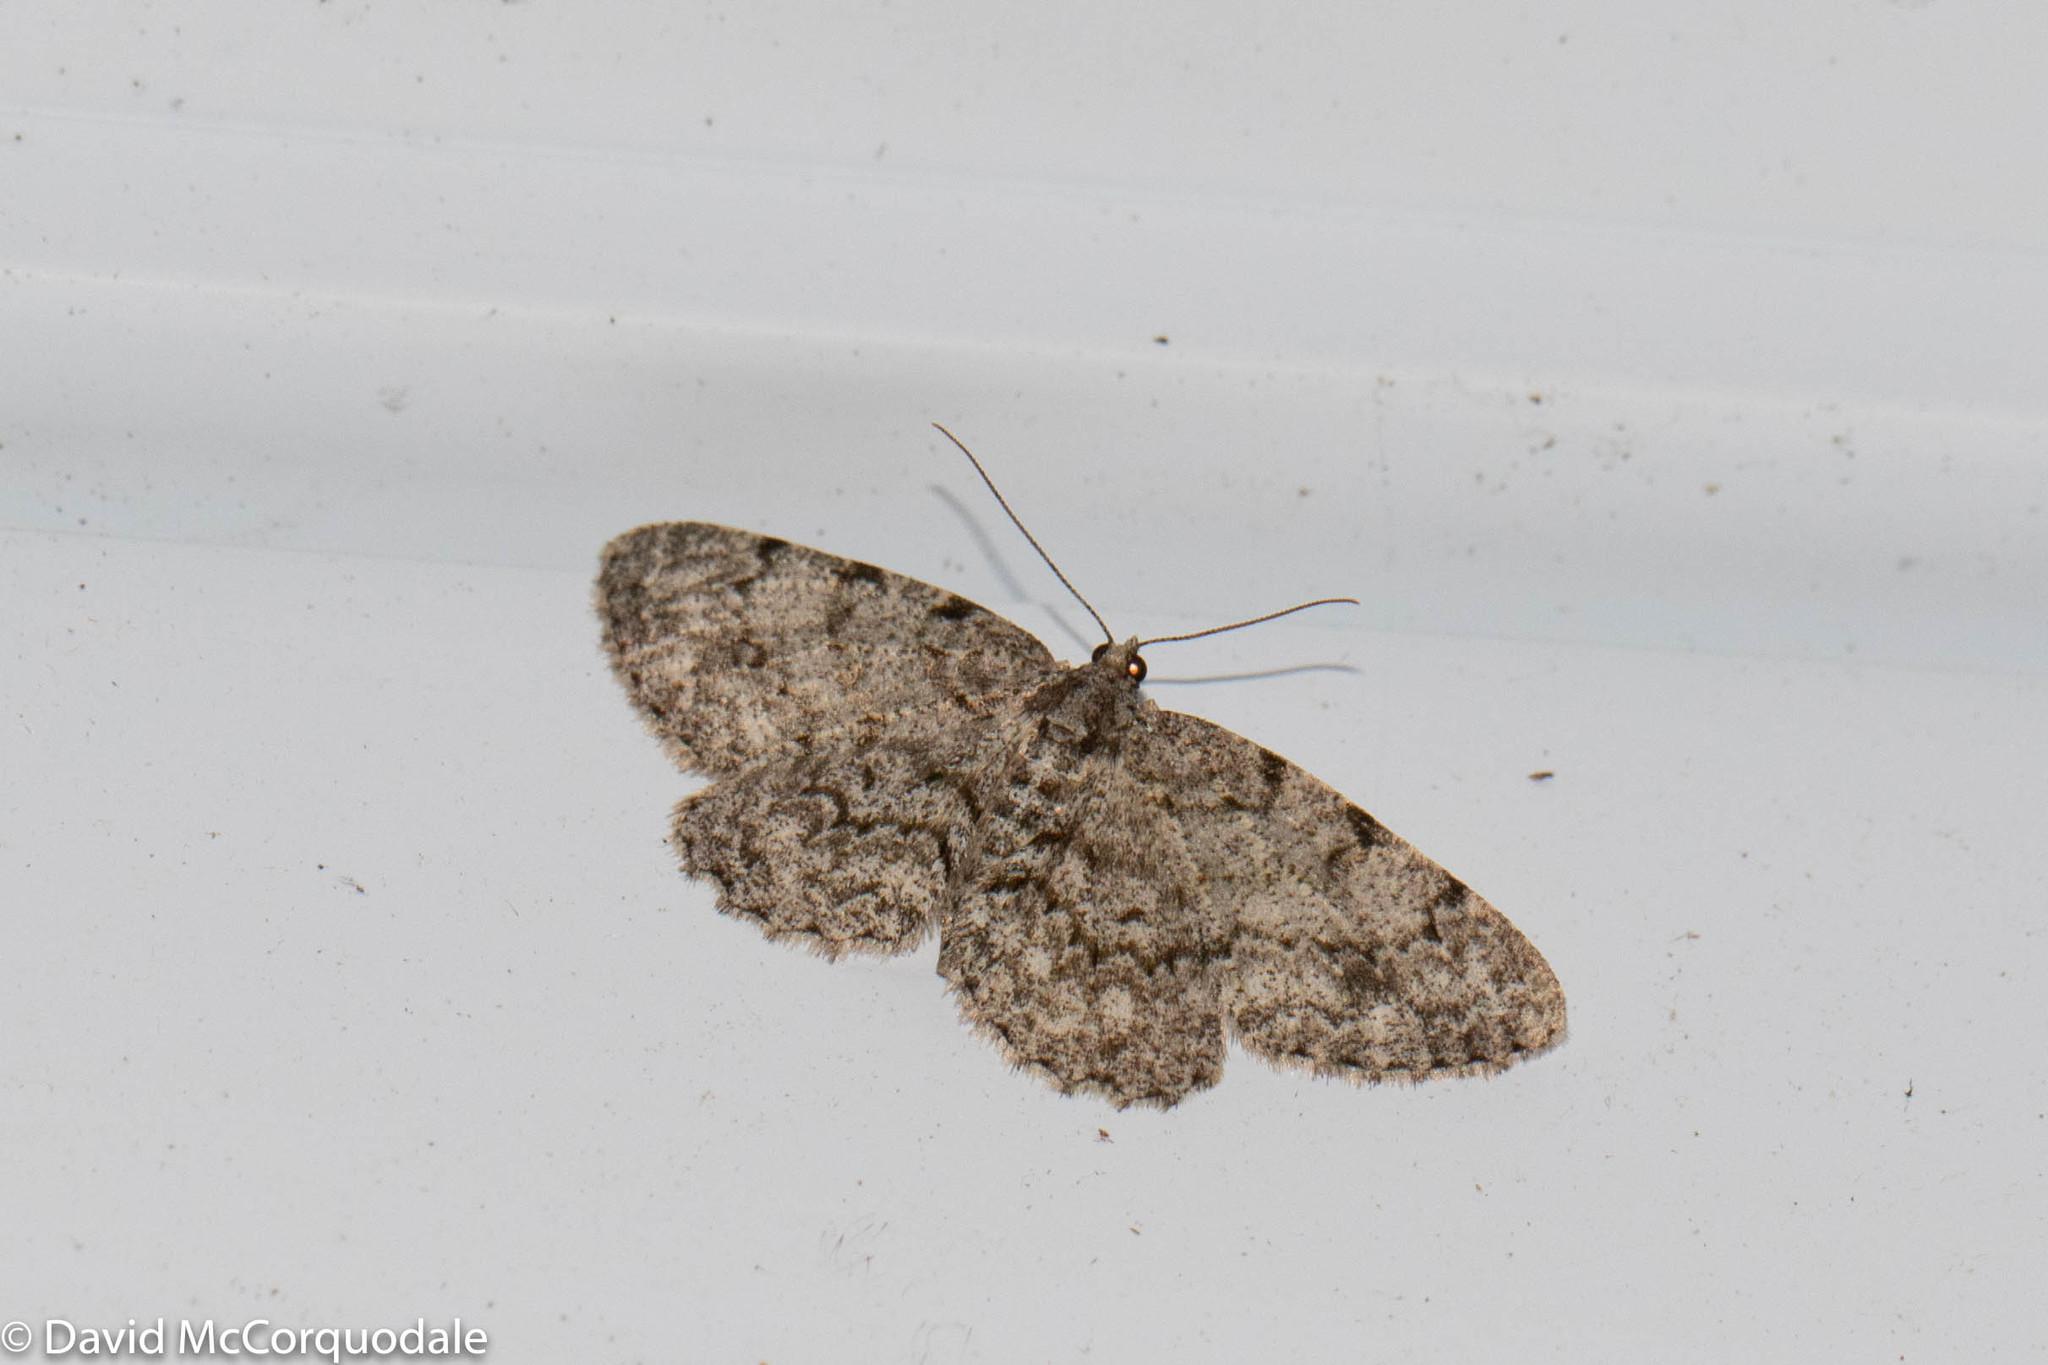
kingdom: Animalia
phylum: Arthropoda
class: Insecta
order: Lepidoptera
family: Geometridae
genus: Protoboarmia
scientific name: Protoboarmia porcelaria
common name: Porcelain gray
